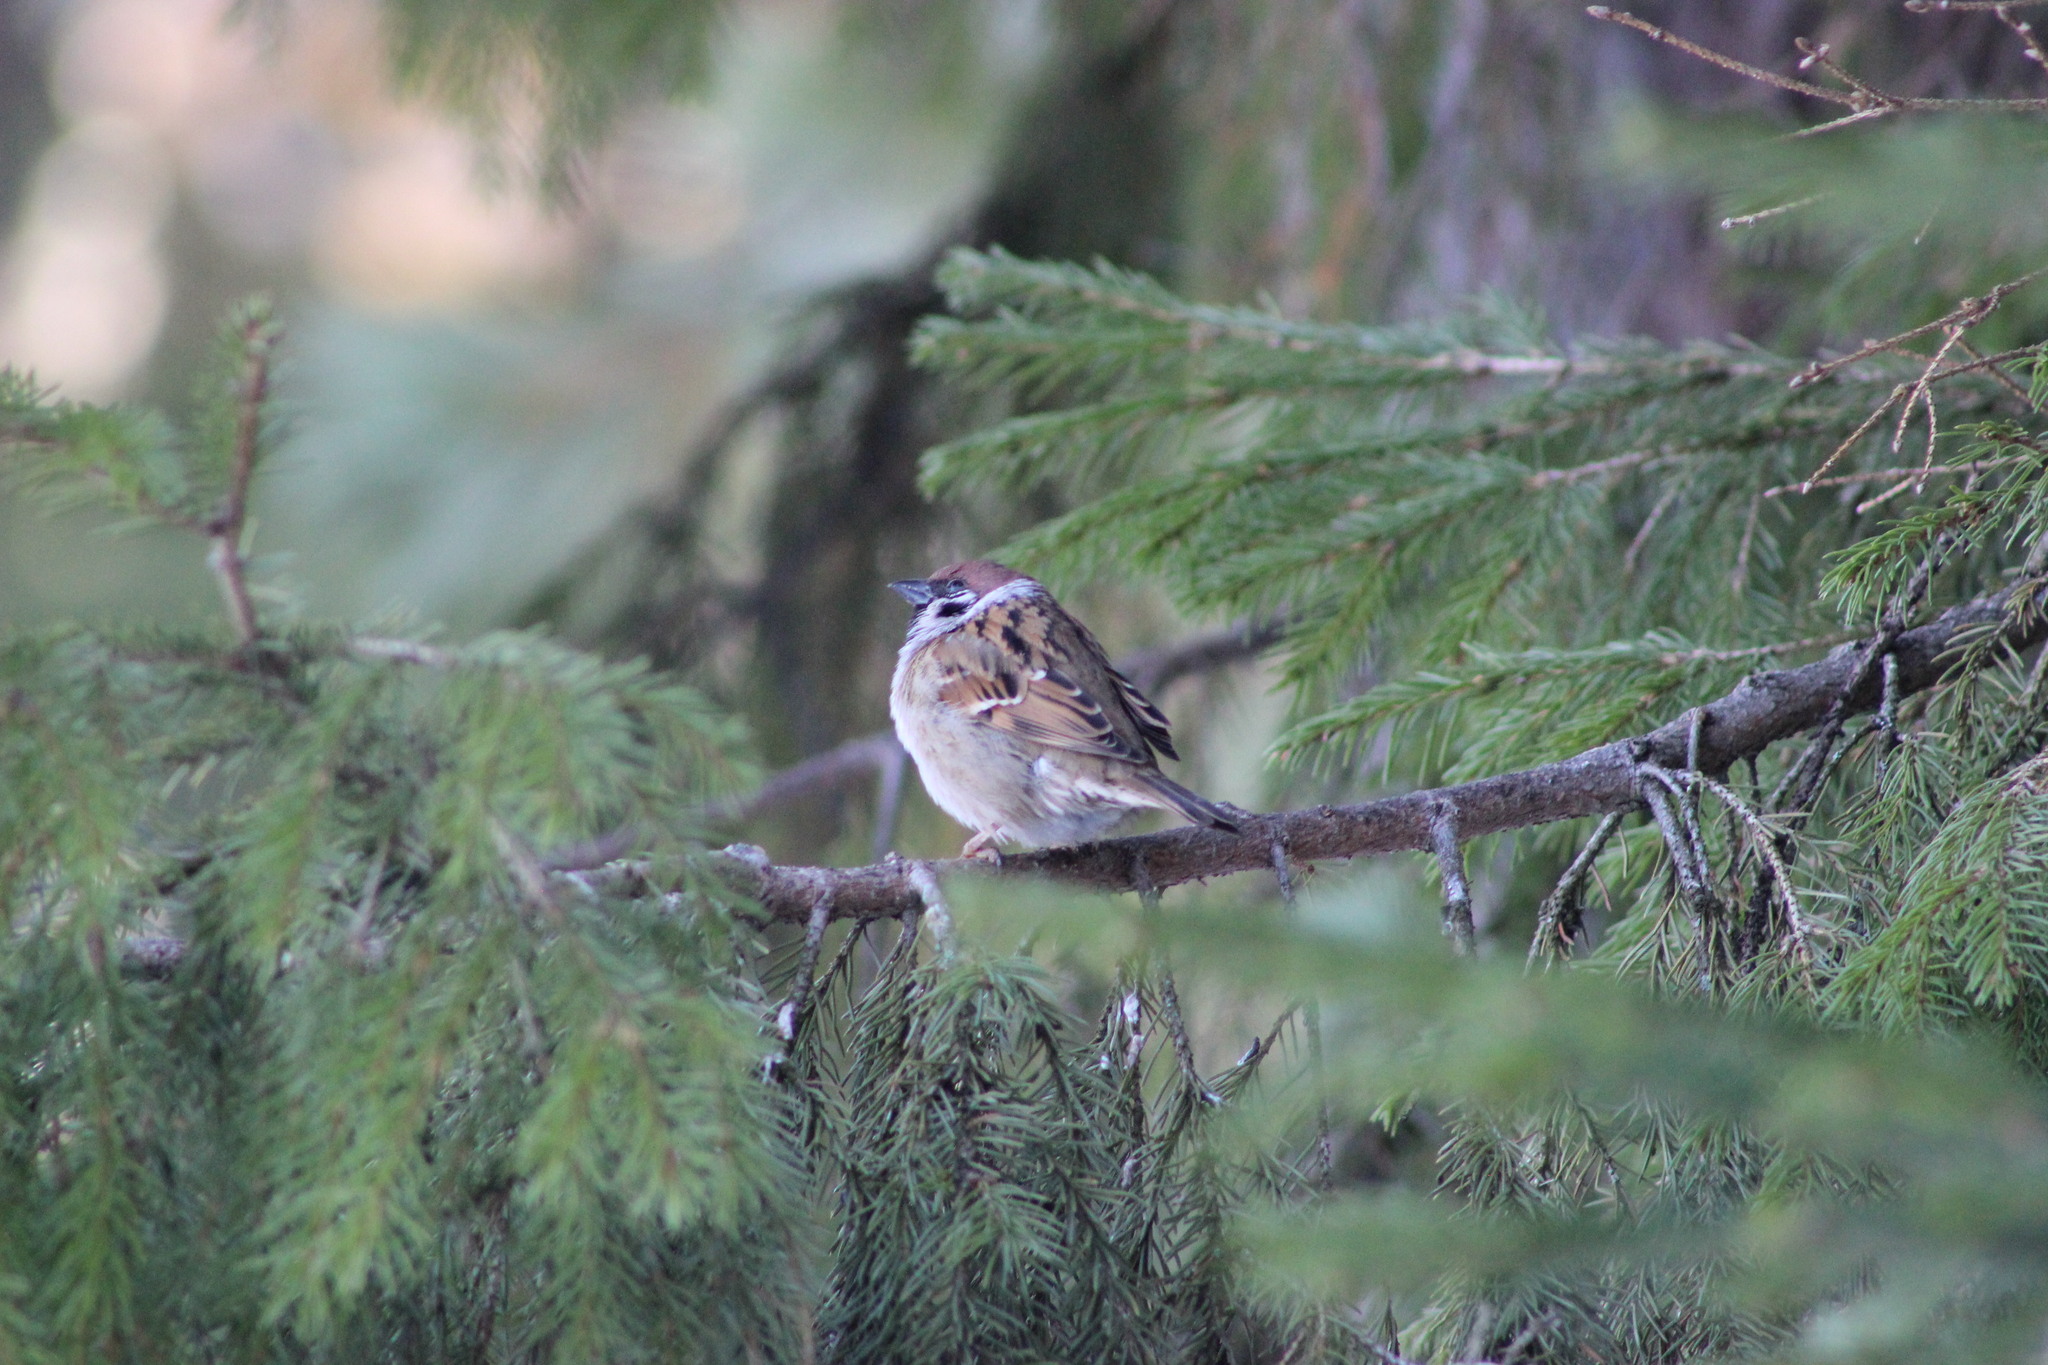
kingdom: Animalia
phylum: Chordata
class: Aves
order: Passeriformes
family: Passeridae
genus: Passer
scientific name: Passer montanus
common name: Eurasian tree sparrow
